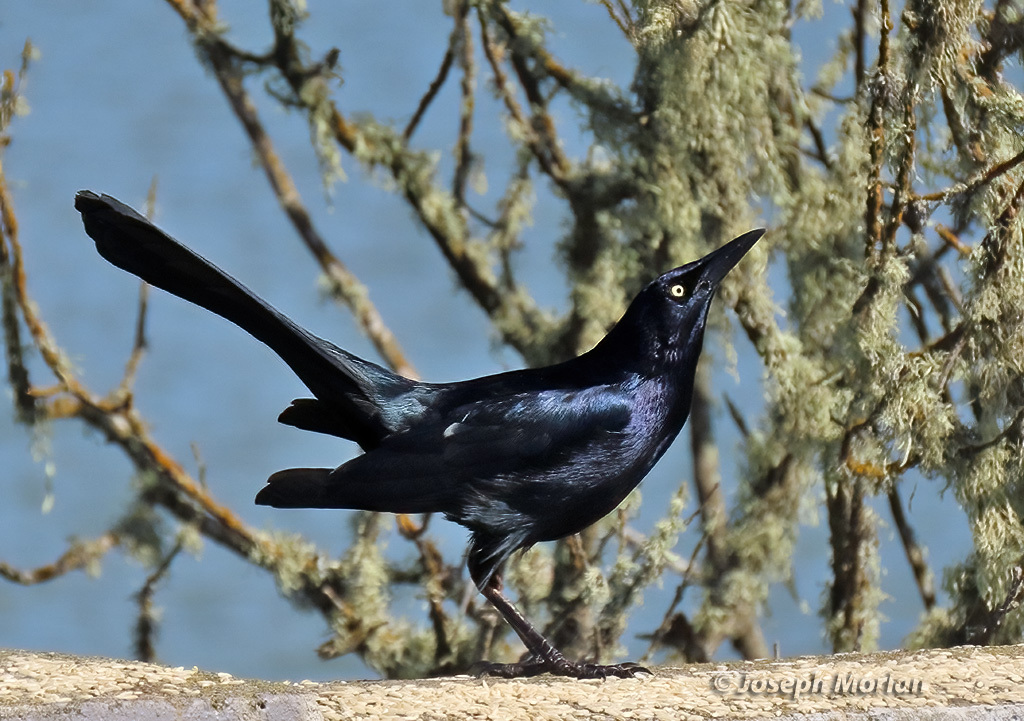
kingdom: Animalia
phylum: Chordata
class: Aves
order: Passeriformes
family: Icteridae
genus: Quiscalus
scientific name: Quiscalus mexicanus
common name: Great-tailed grackle
